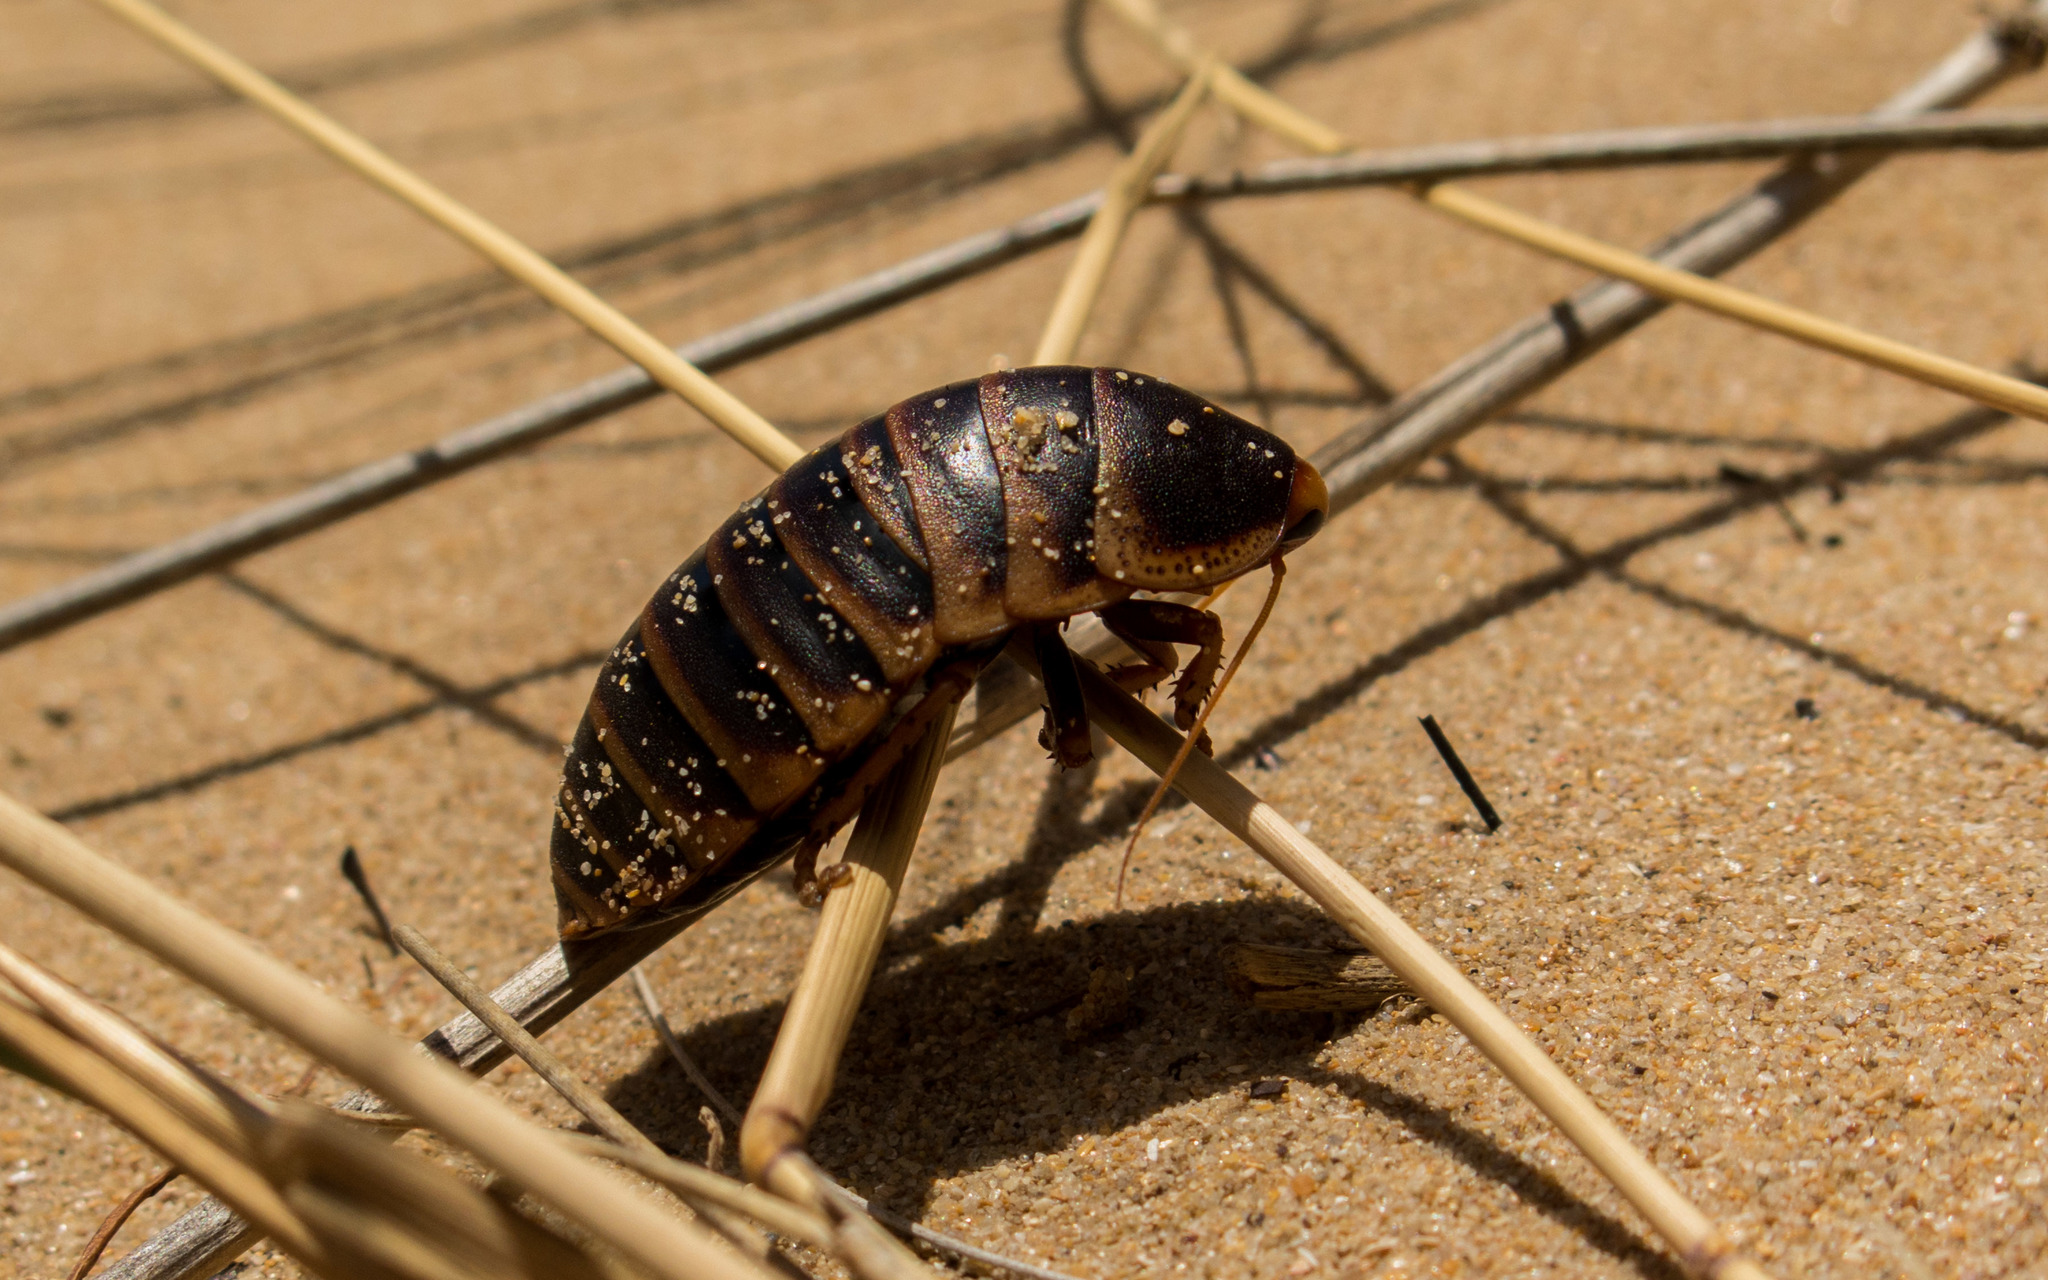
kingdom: Animalia
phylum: Arthropoda
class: Insecta
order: Blattodea
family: Blaberidae
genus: Aptera
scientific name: Aptera fusca
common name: Cape mountain cockroach
